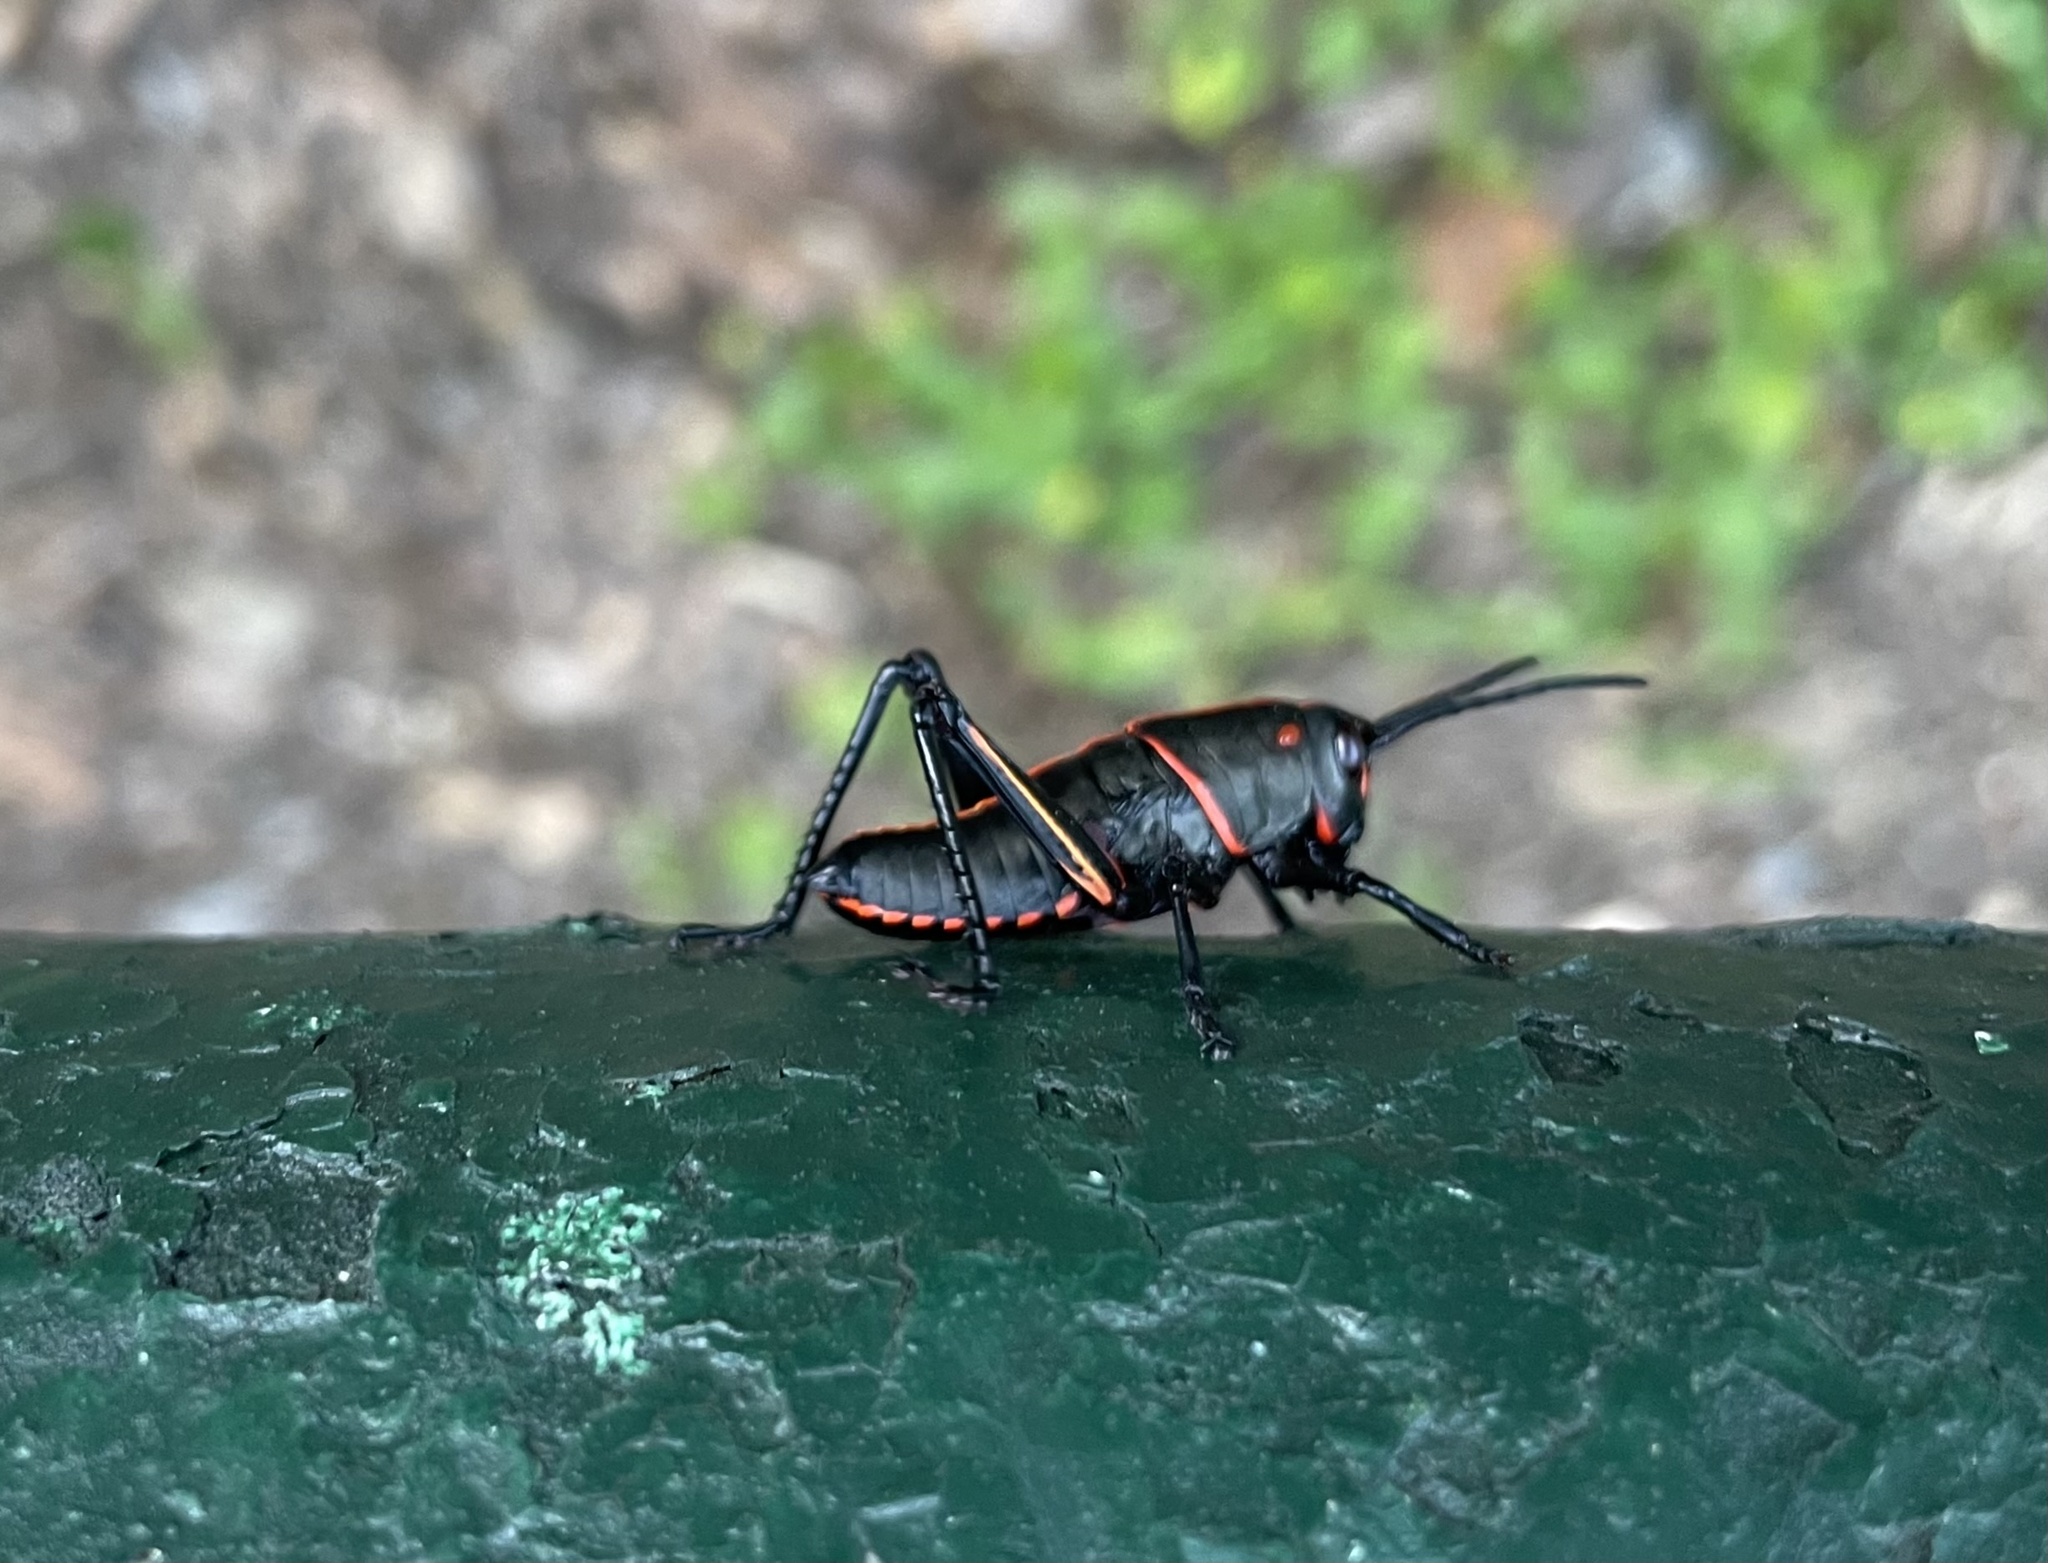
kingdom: Animalia
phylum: Arthropoda
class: Insecta
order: Orthoptera
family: Romaleidae
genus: Romalea
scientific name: Romalea microptera
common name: Eastern lubber grasshopper
